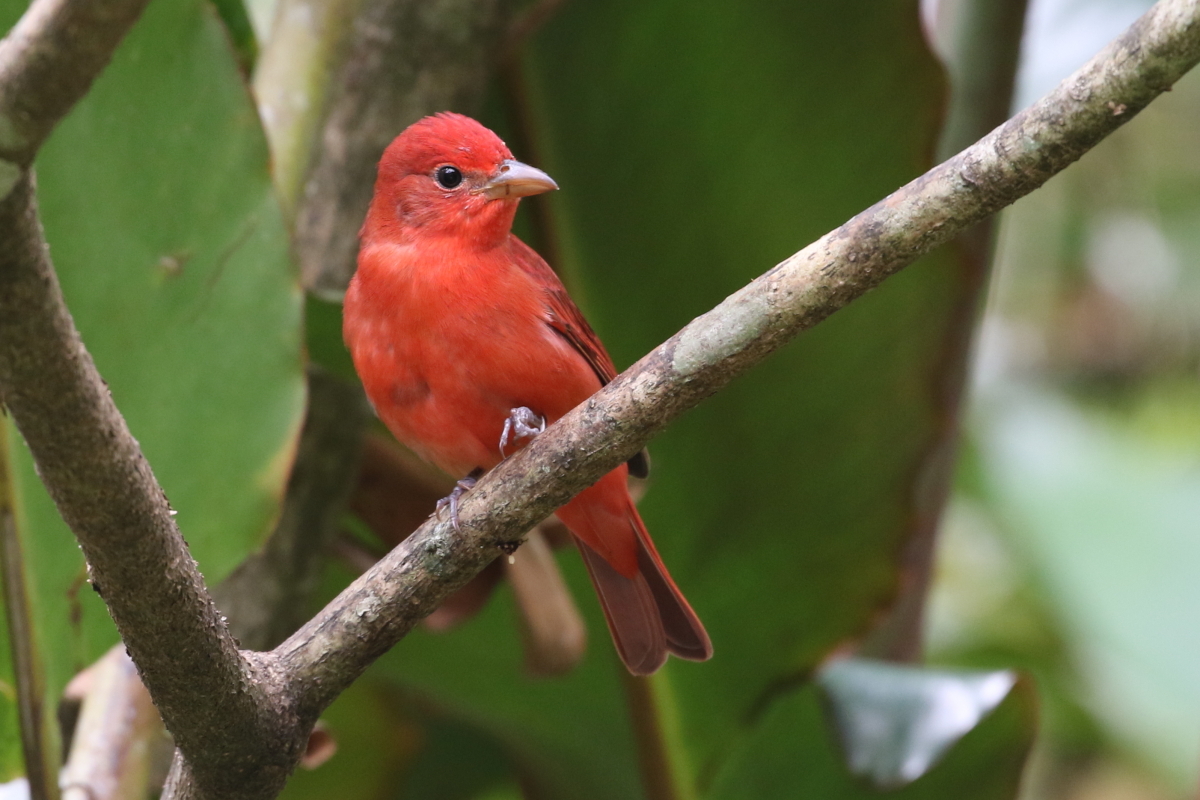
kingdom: Animalia
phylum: Chordata
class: Aves
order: Passeriformes
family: Cardinalidae
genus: Piranga
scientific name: Piranga rubra
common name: Summer tanager
